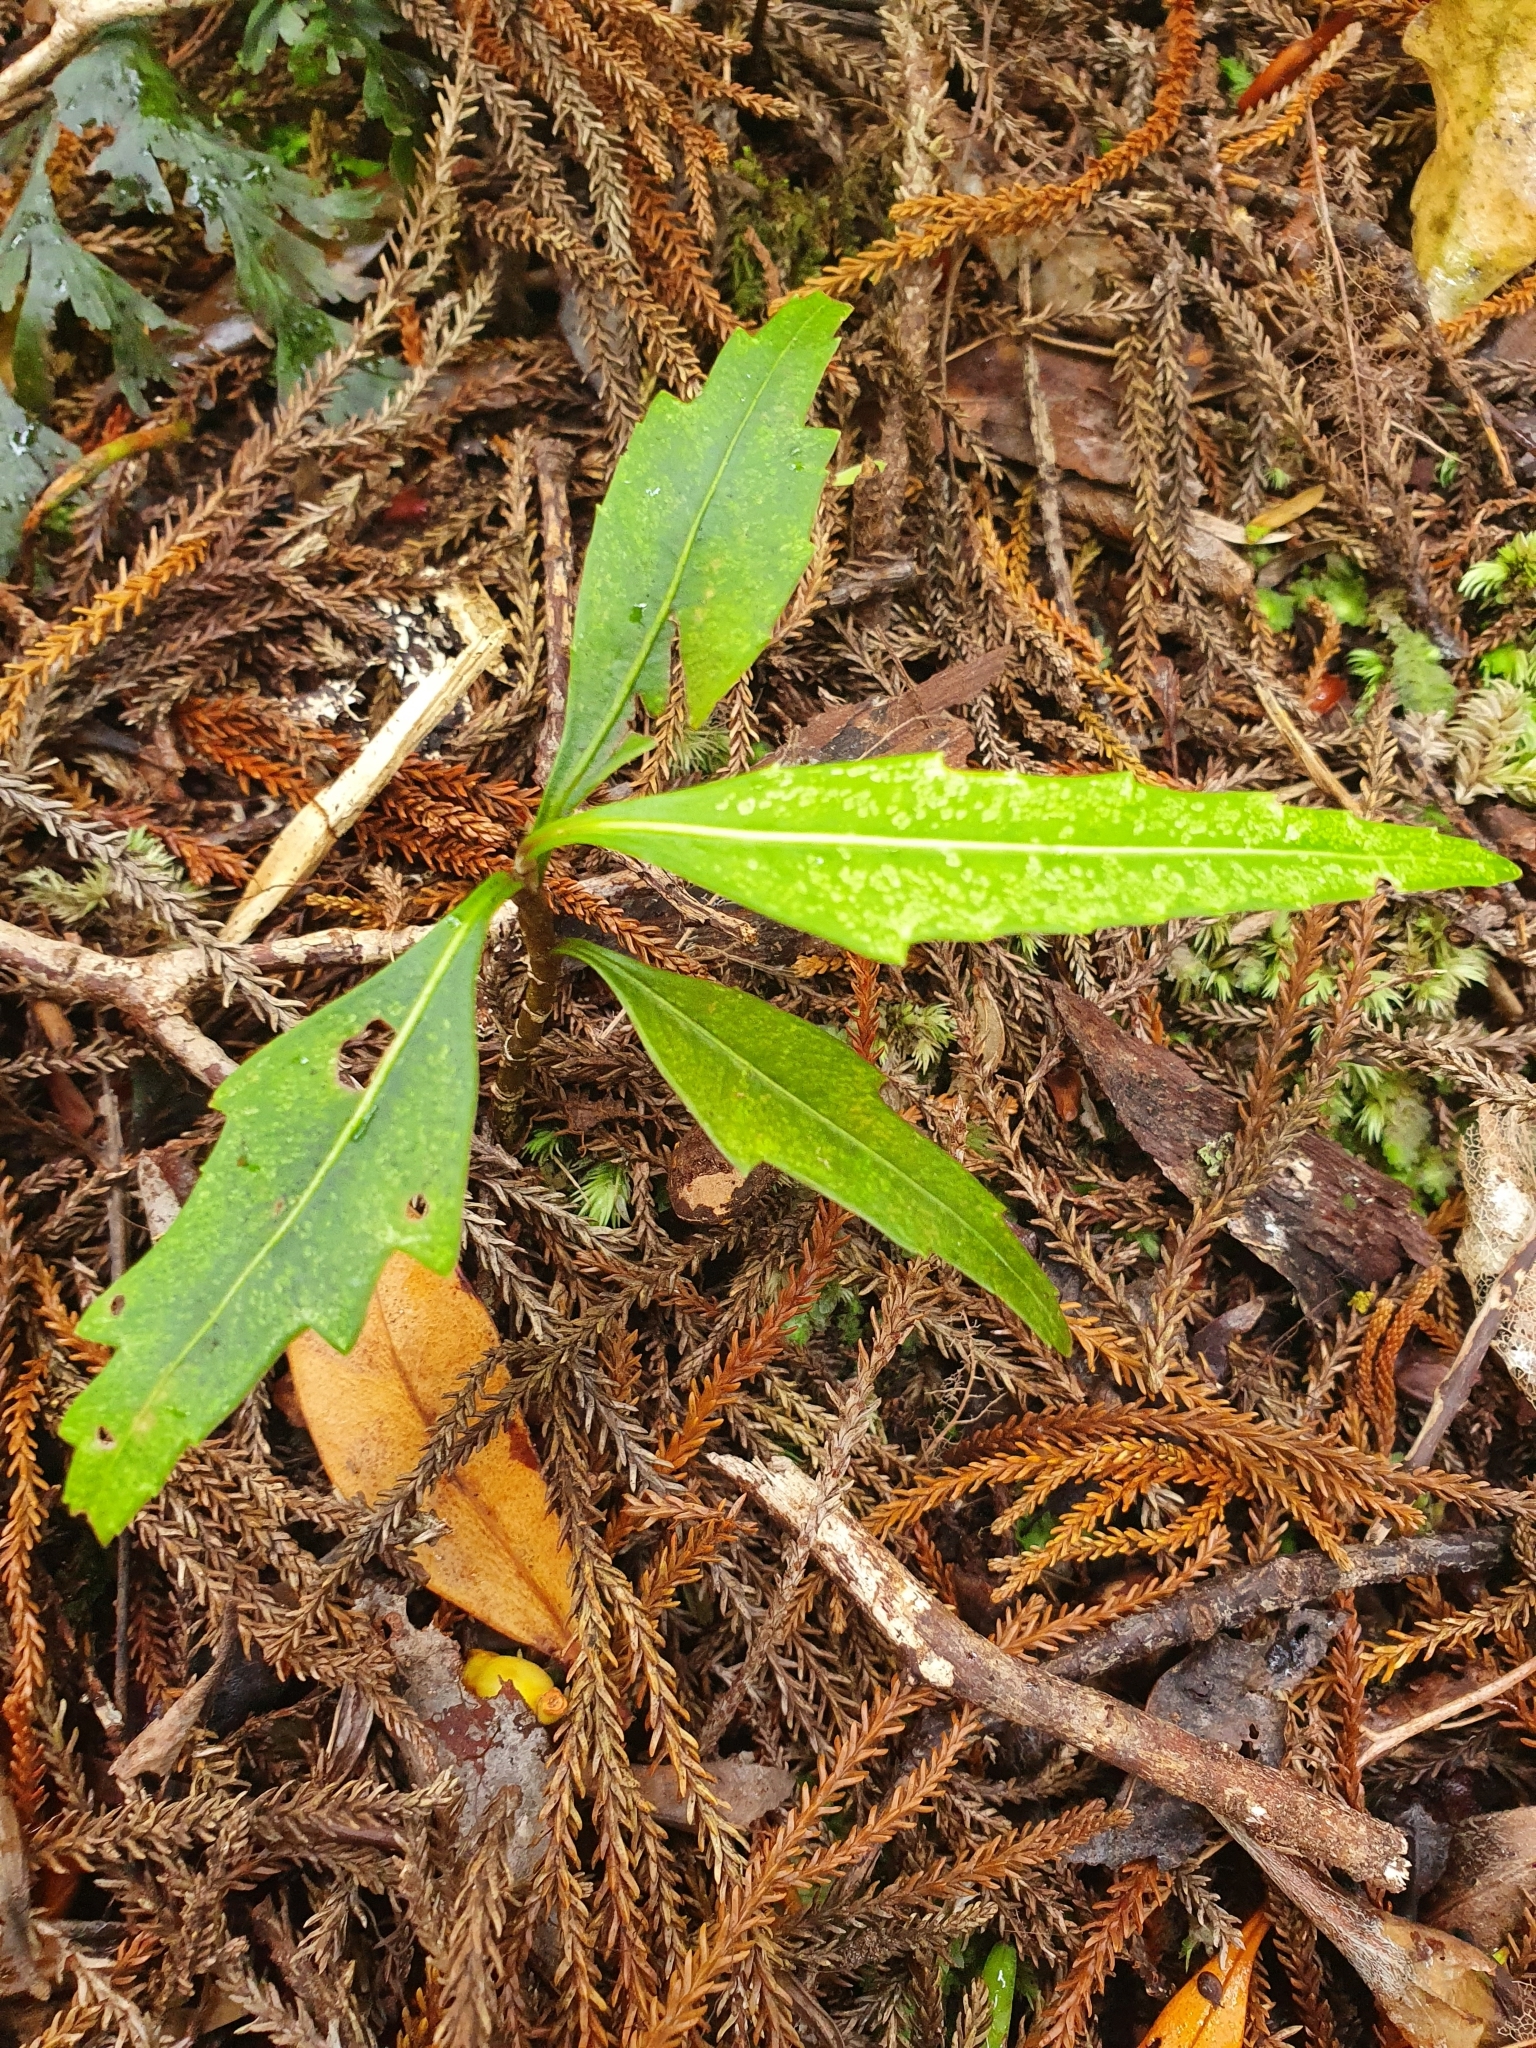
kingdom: Plantae
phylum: Tracheophyta
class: Magnoliopsida
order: Apiales
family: Araliaceae
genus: Pseudopanax
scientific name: Pseudopanax crassifolius
